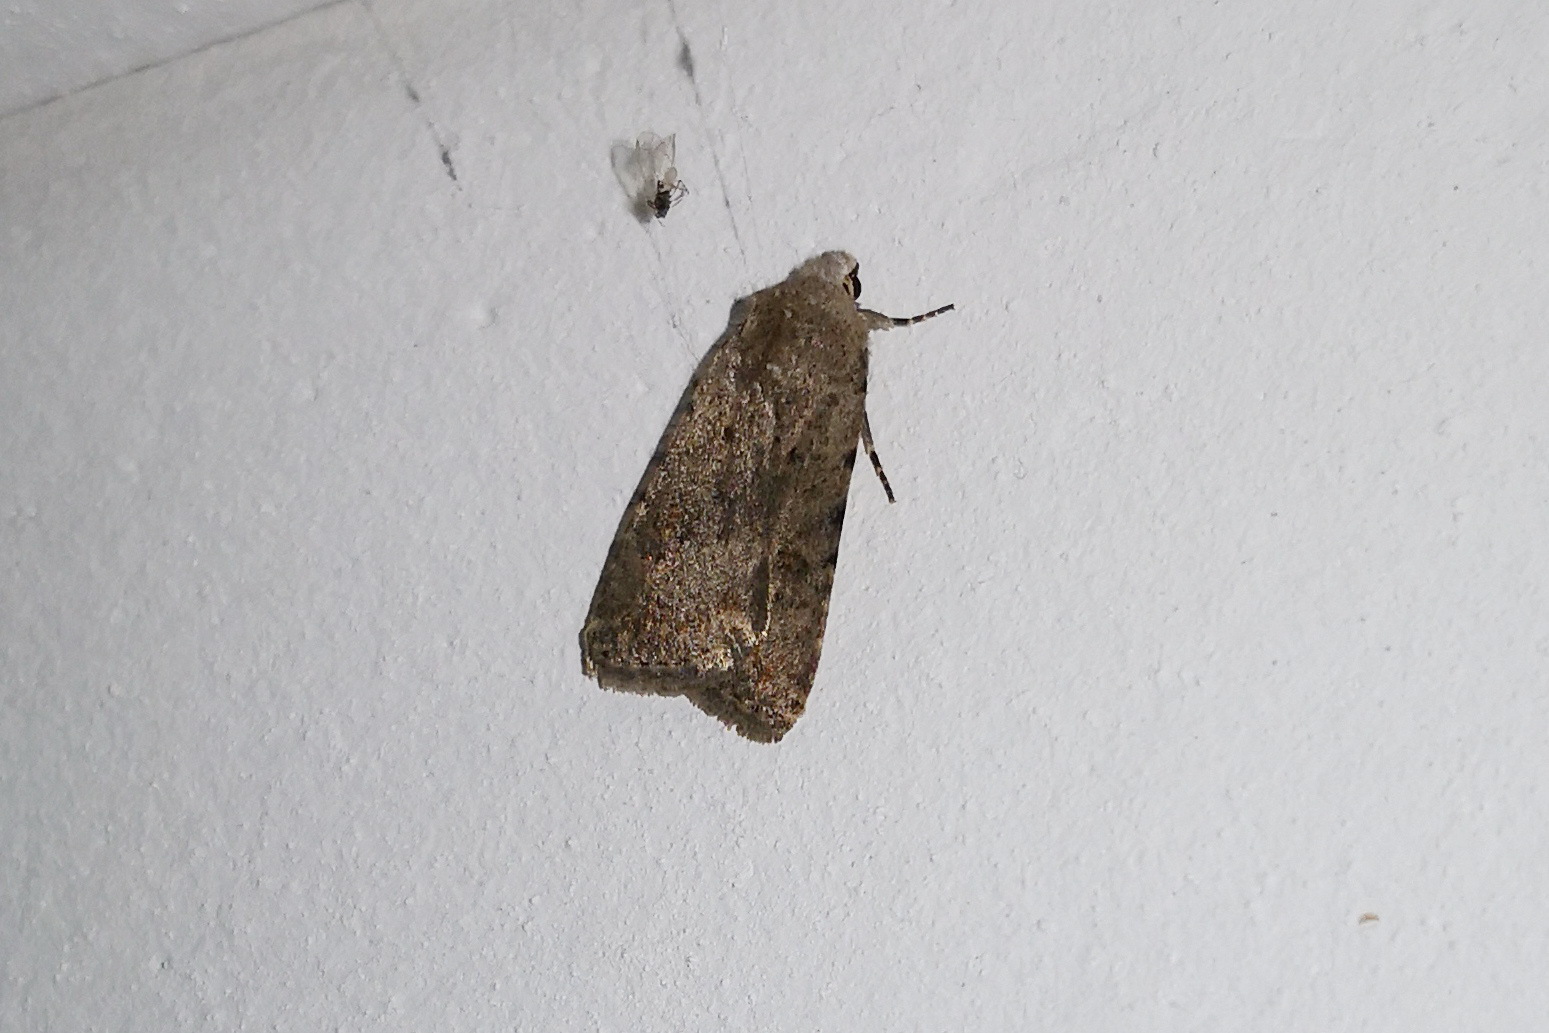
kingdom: Animalia
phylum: Arthropoda
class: Insecta
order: Lepidoptera
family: Noctuidae
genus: Caradrina
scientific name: Caradrina clavipalpis
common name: Pale mottled willow
